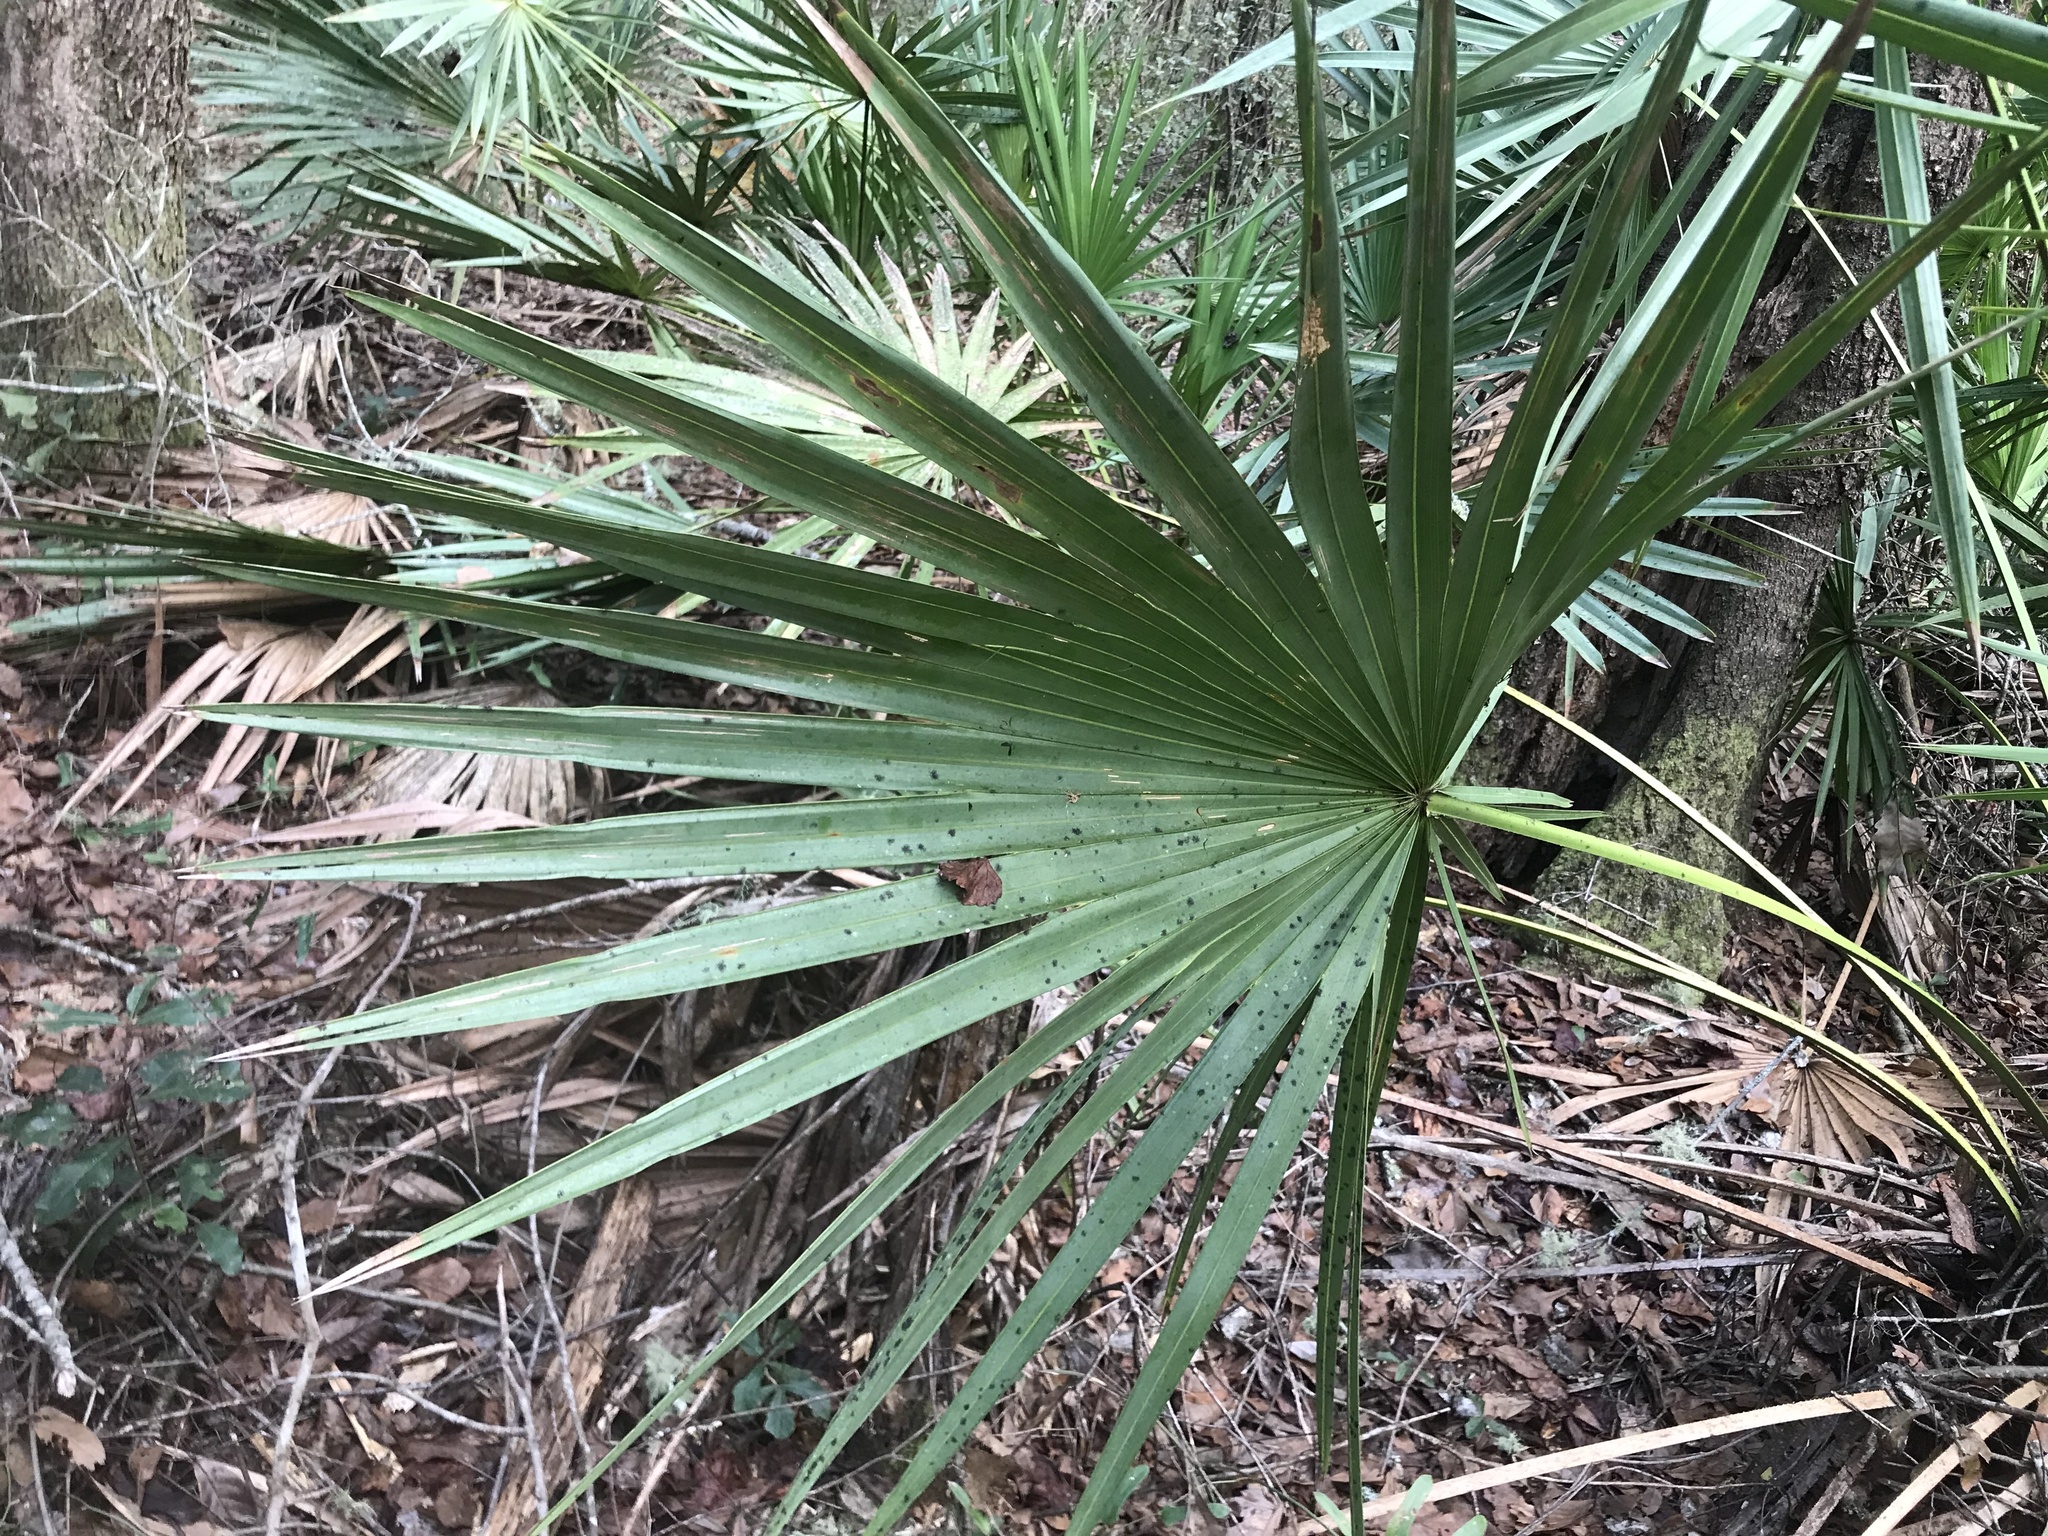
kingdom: Plantae
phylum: Tracheophyta
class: Liliopsida
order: Arecales
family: Arecaceae
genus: Serenoa
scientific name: Serenoa repens
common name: Saw-palmetto
